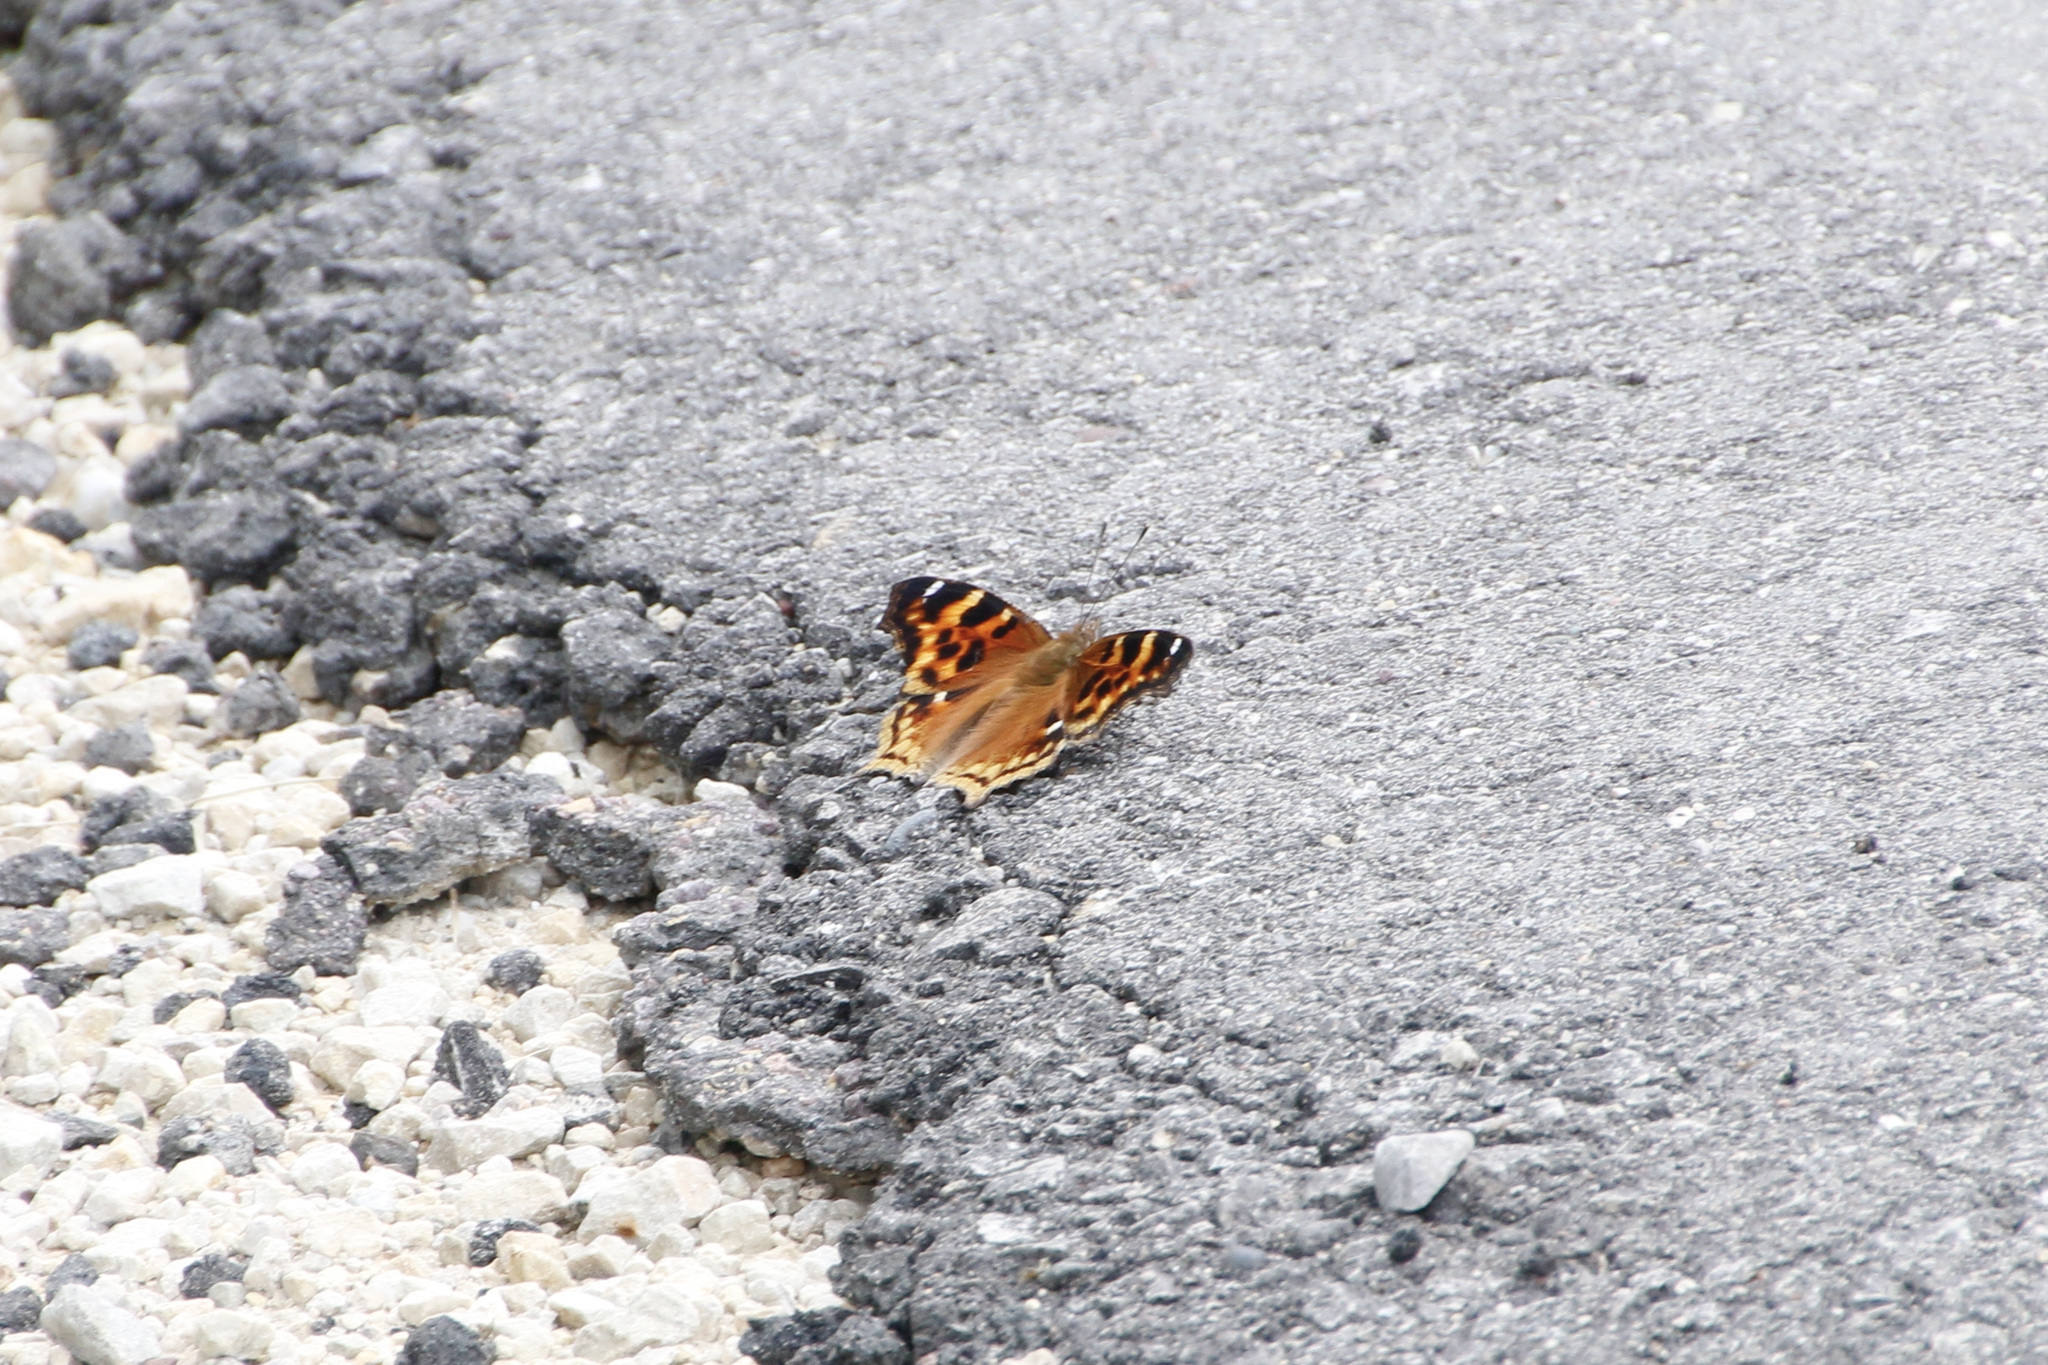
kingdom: Animalia
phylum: Arthropoda
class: Insecta
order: Lepidoptera
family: Nymphalidae
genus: Polygonia
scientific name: Polygonia vaualbum
